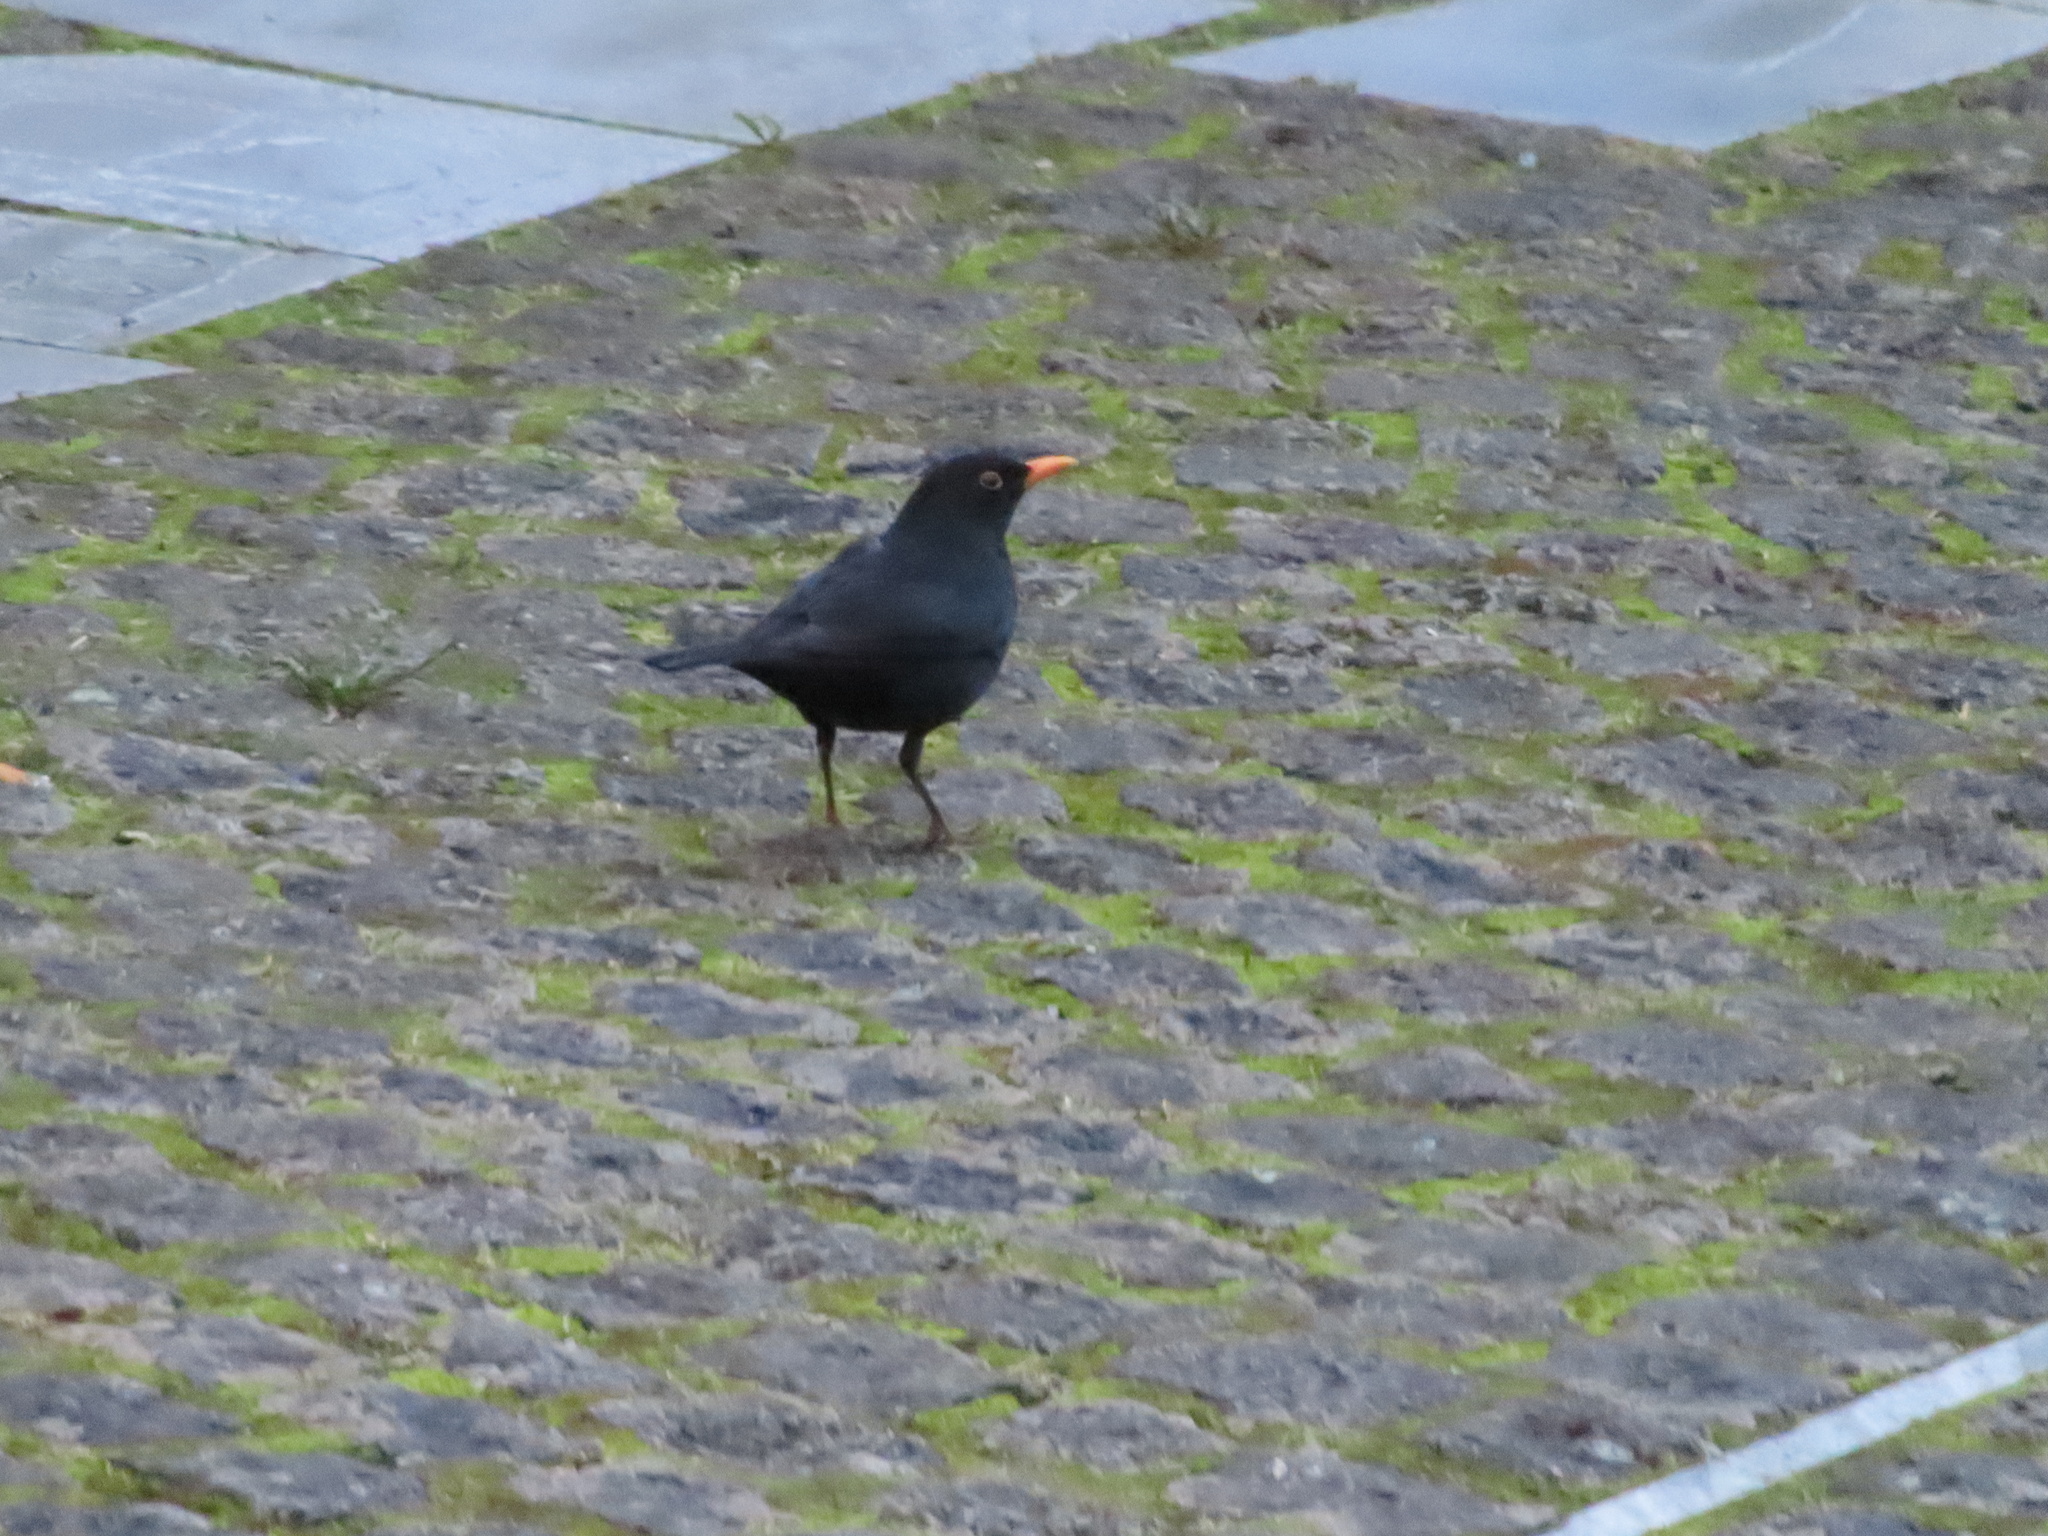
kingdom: Animalia
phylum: Chordata
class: Aves
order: Passeriformes
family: Turdidae
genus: Turdus
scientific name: Turdus merula
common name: Common blackbird
